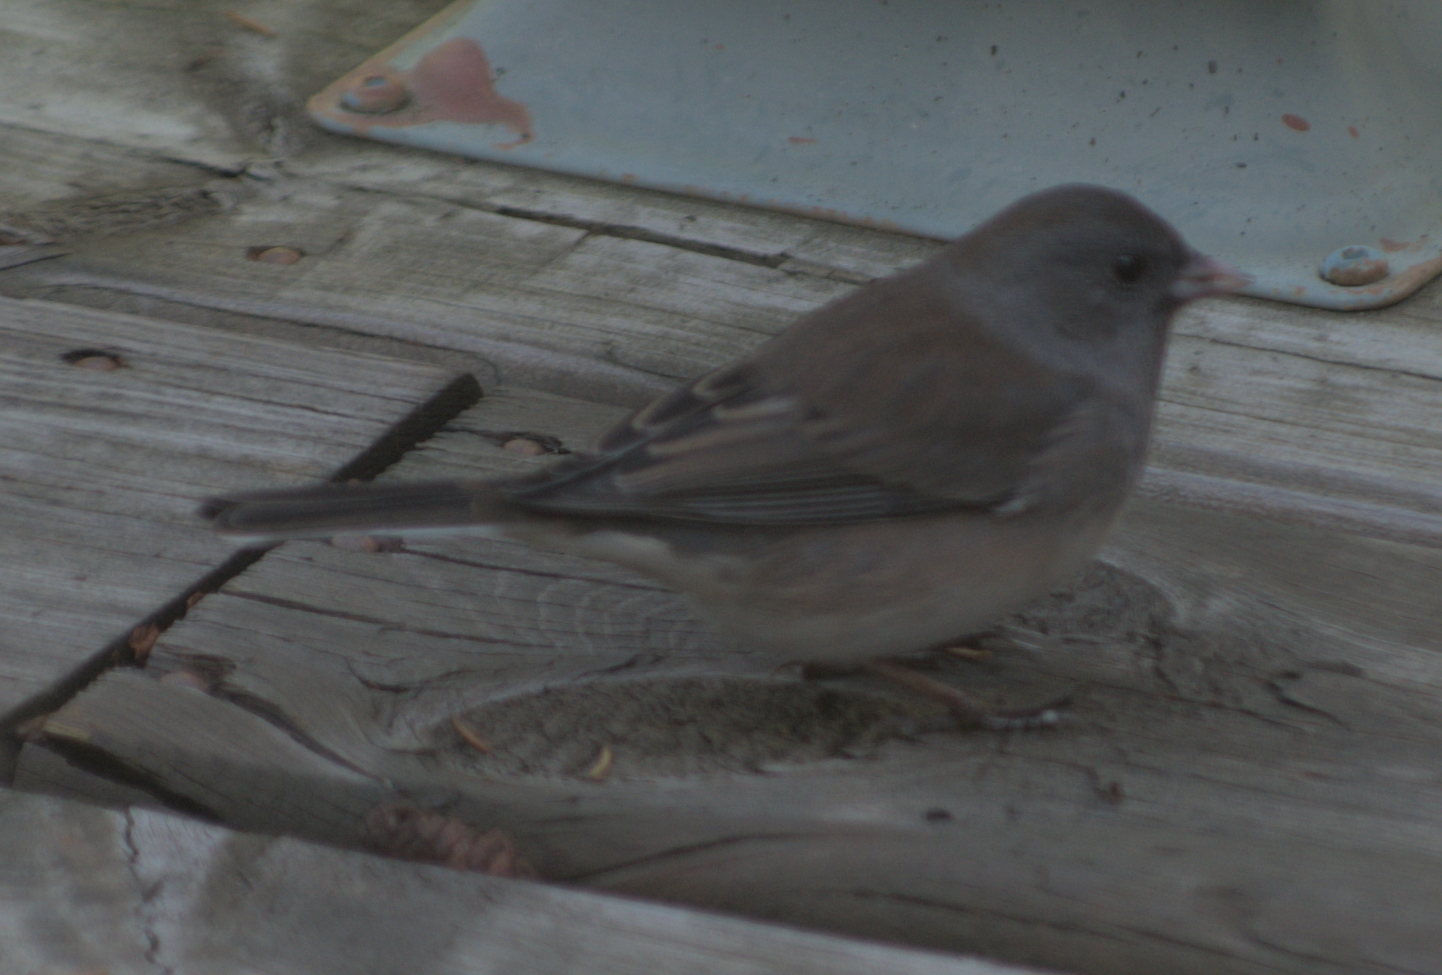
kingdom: Animalia
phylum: Chordata
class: Aves
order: Passeriformes
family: Passerellidae
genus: Junco
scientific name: Junco hyemalis
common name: Dark-eyed junco
